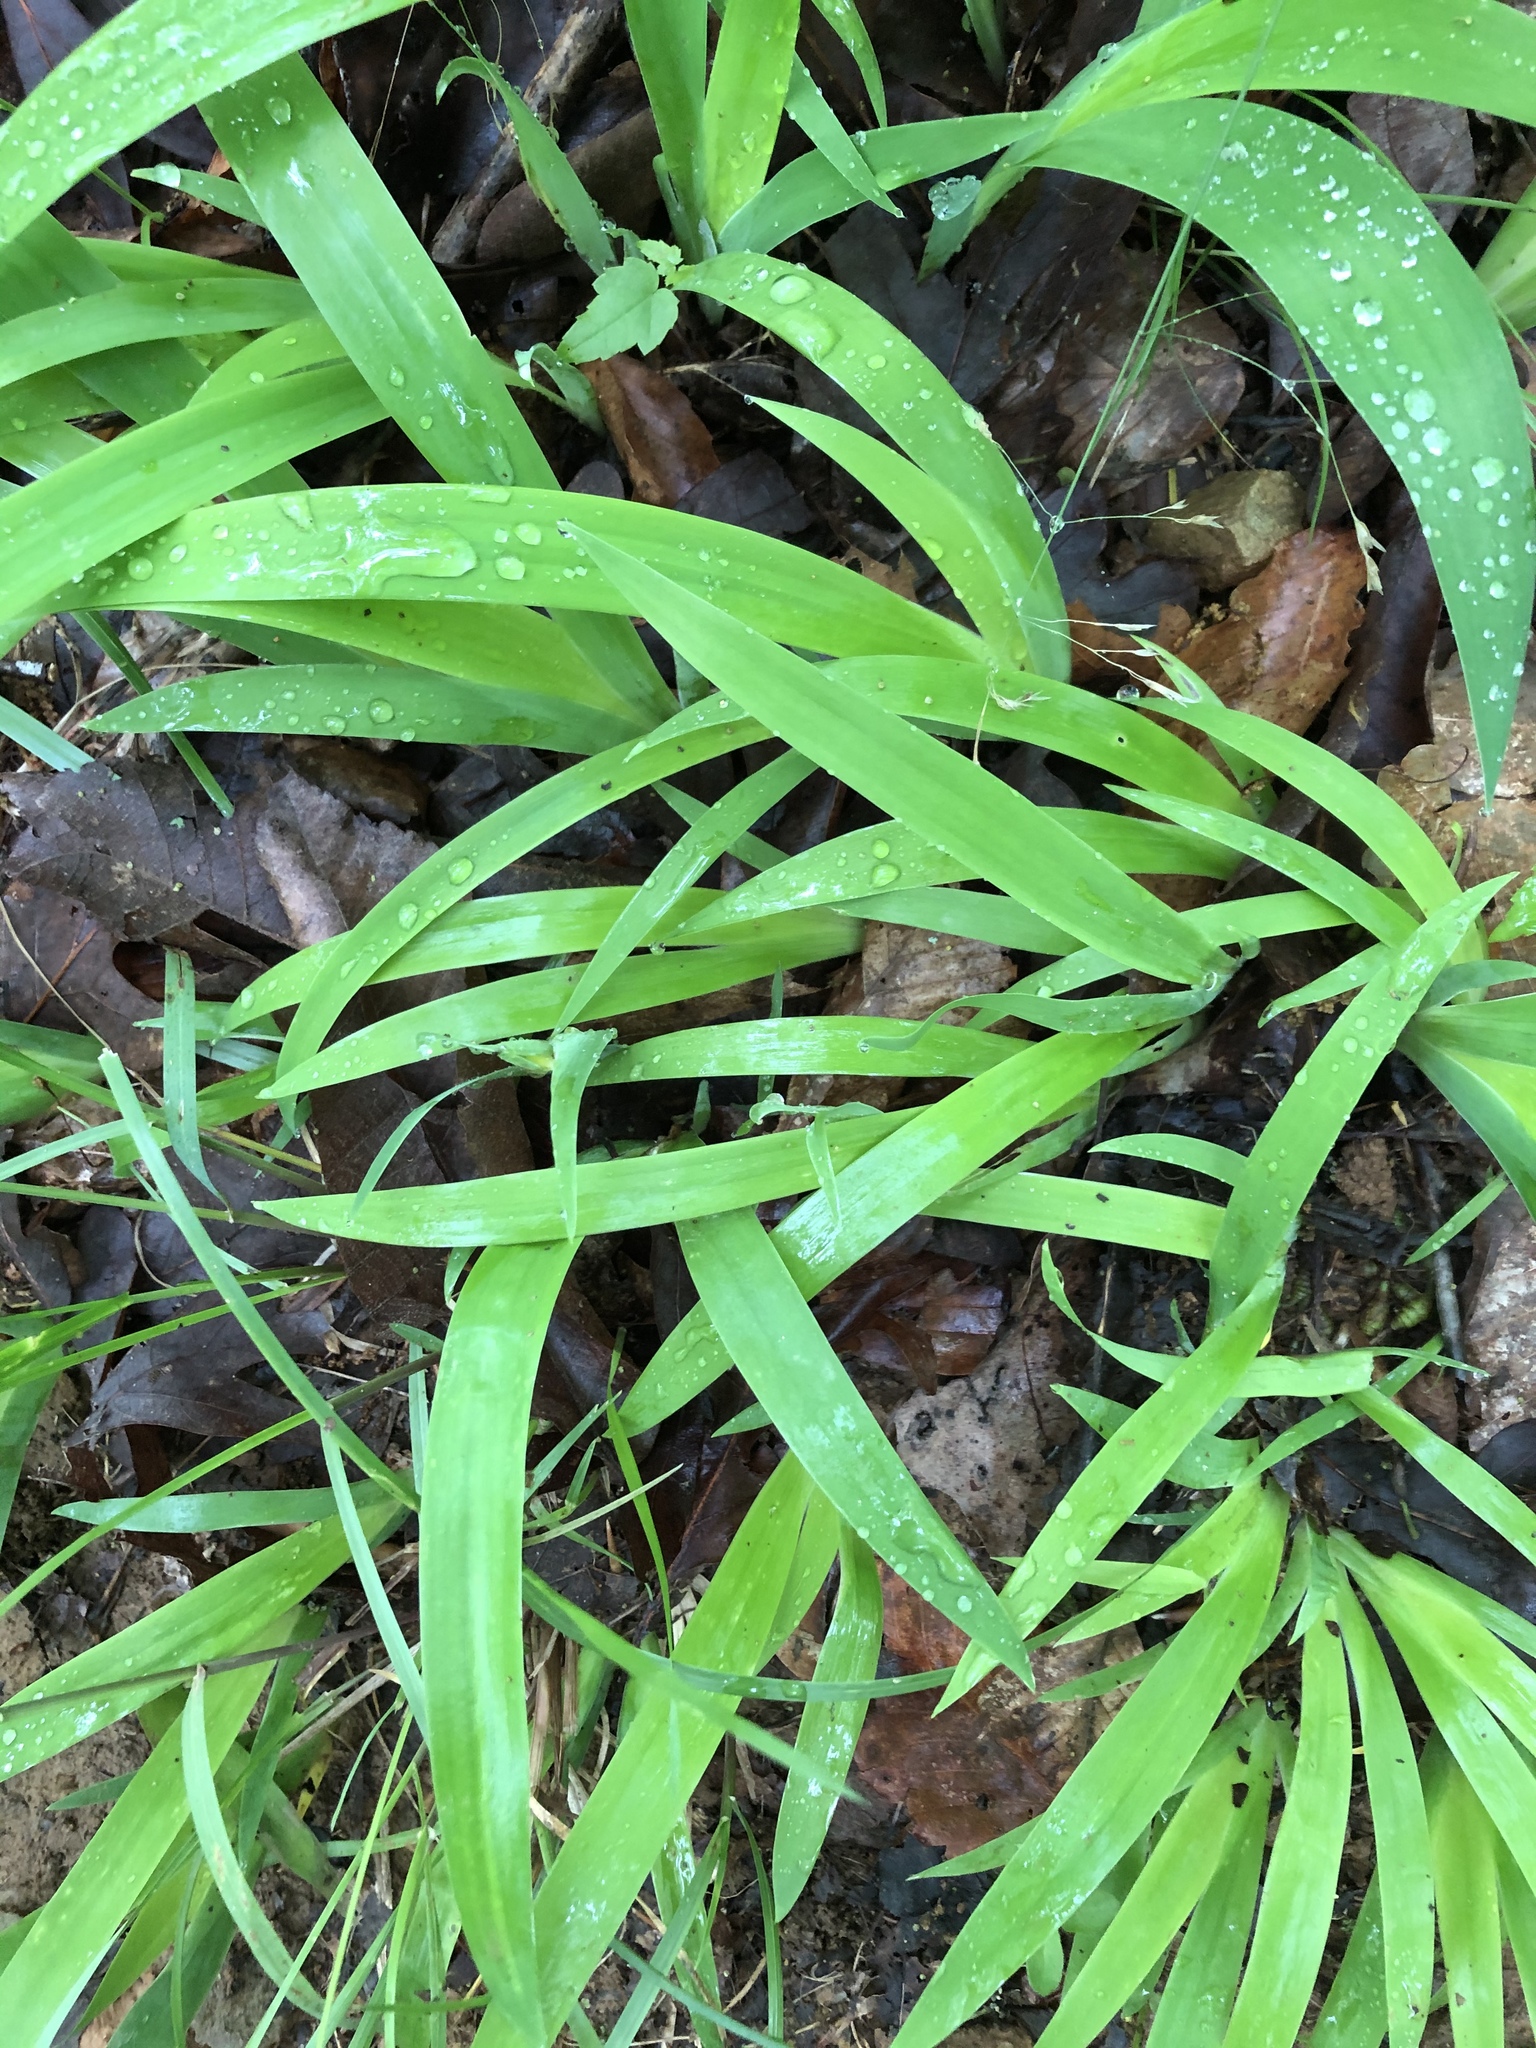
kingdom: Plantae
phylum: Tracheophyta
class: Liliopsida
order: Asparagales
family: Iridaceae
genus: Iris
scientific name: Iris cristata
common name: Crested iris
